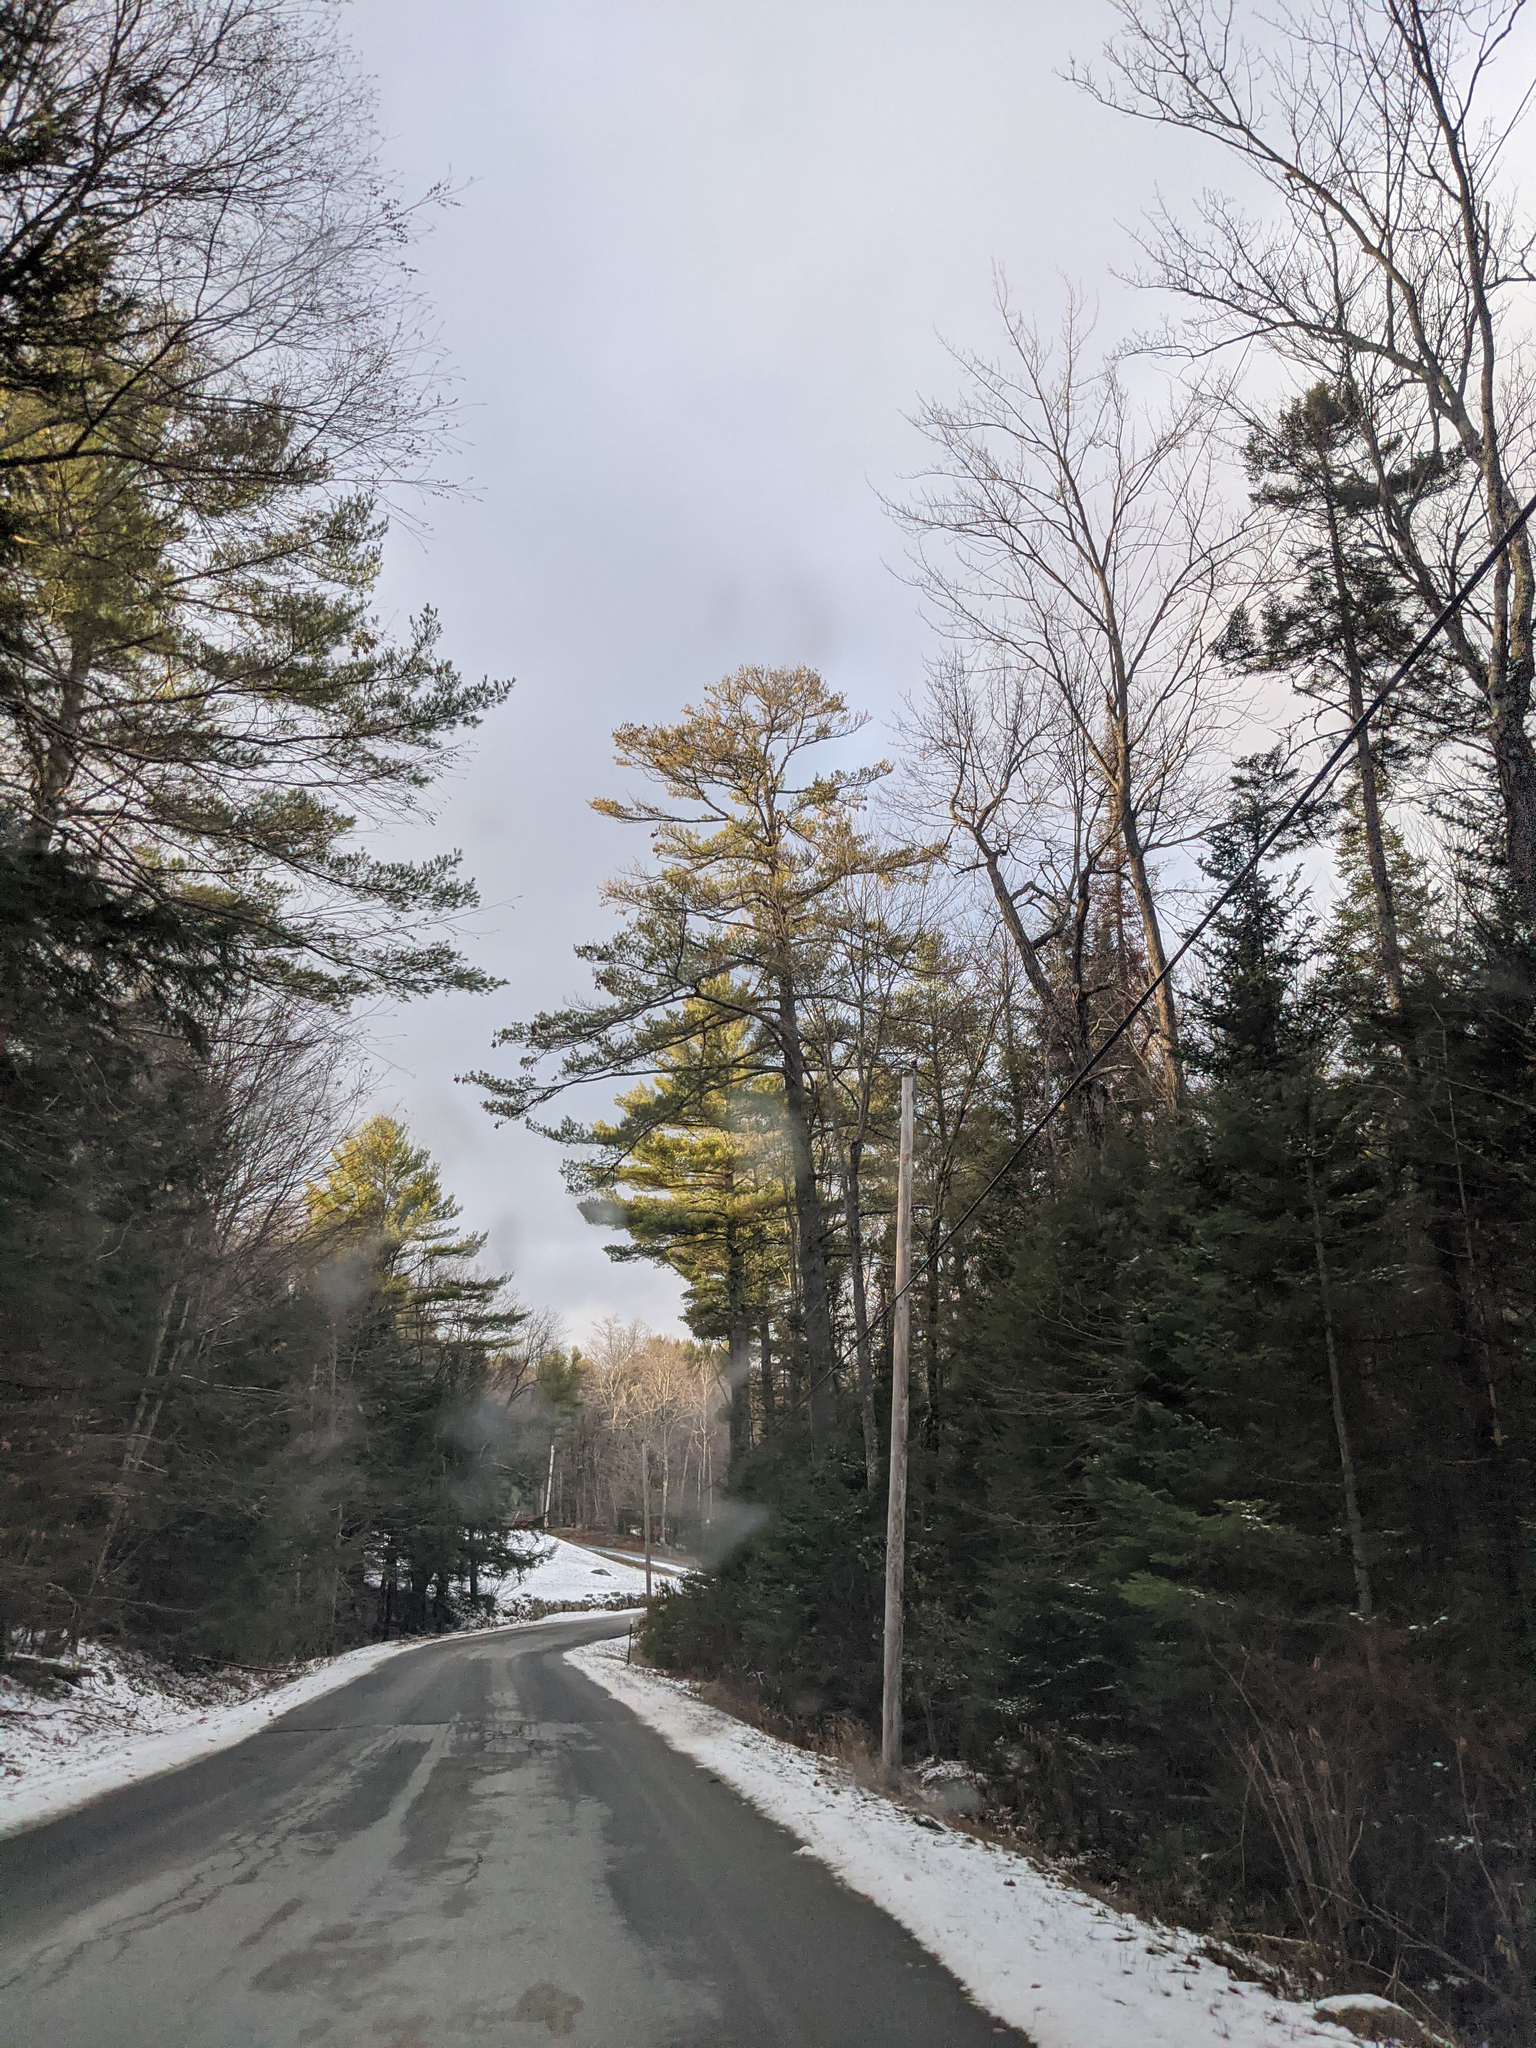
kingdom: Plantae
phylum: Tracheophyta
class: Pinopsida
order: Pinales
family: Pinaceae
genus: Pinus
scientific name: Pinus strobus
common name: Weymouth pine
